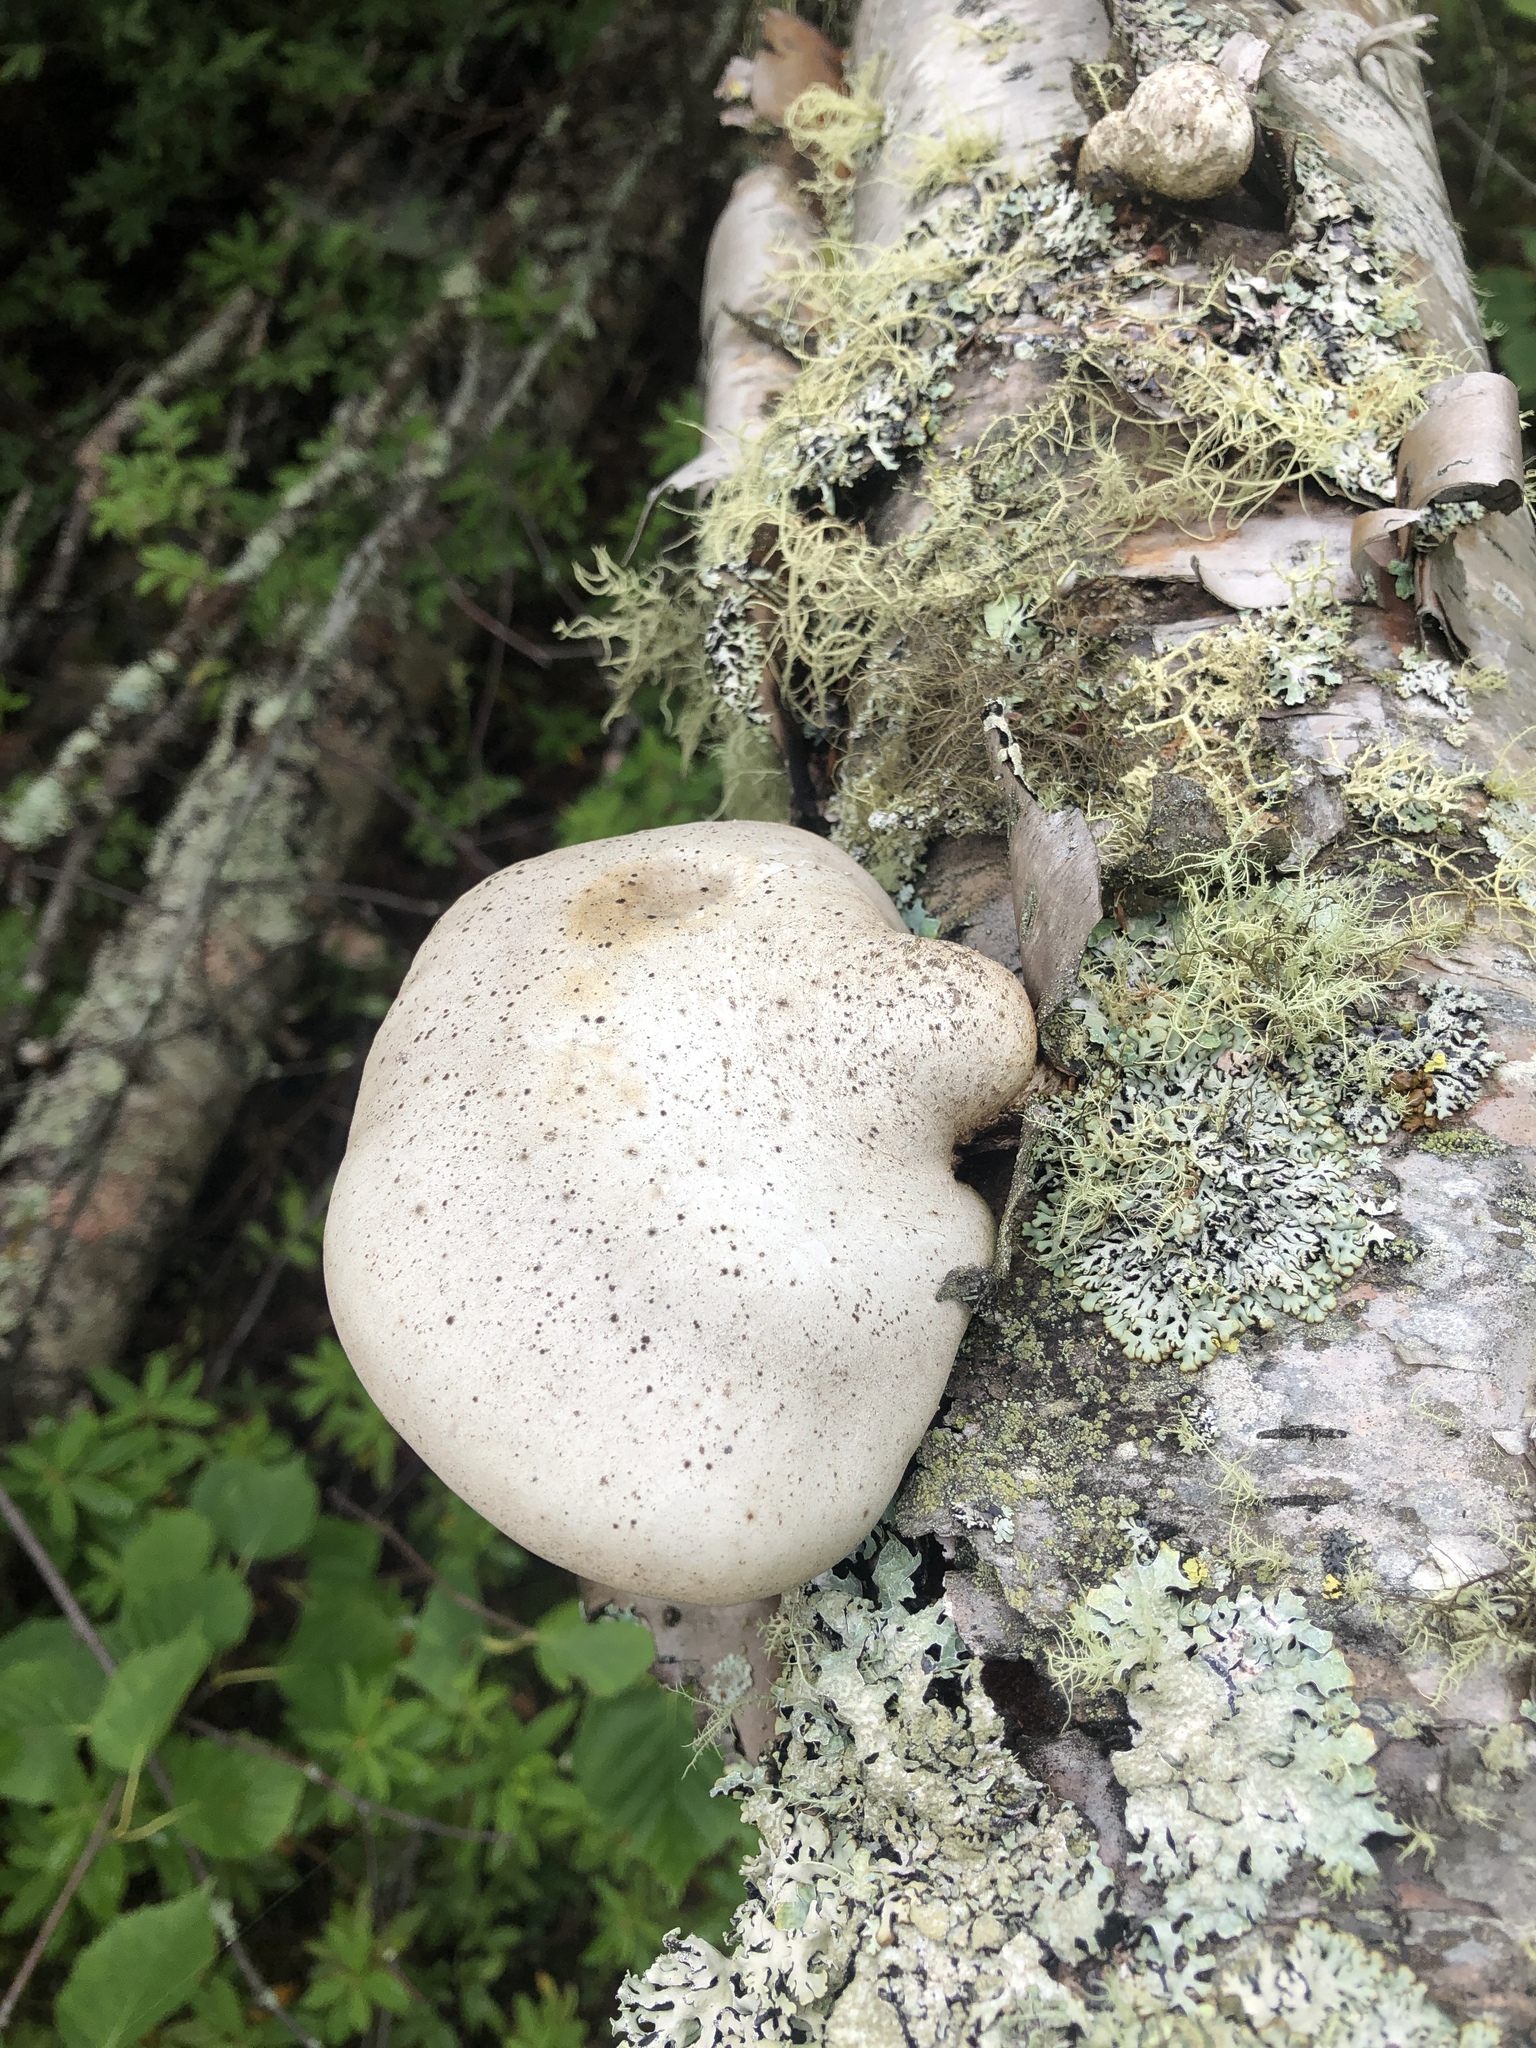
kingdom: Fungi
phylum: Basidiomycota
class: Agaricomycetes
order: Polyporales
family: Fomitopsidaceae
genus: Fomitopsis
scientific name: Fomitopsis betulina
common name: Birch polypore
